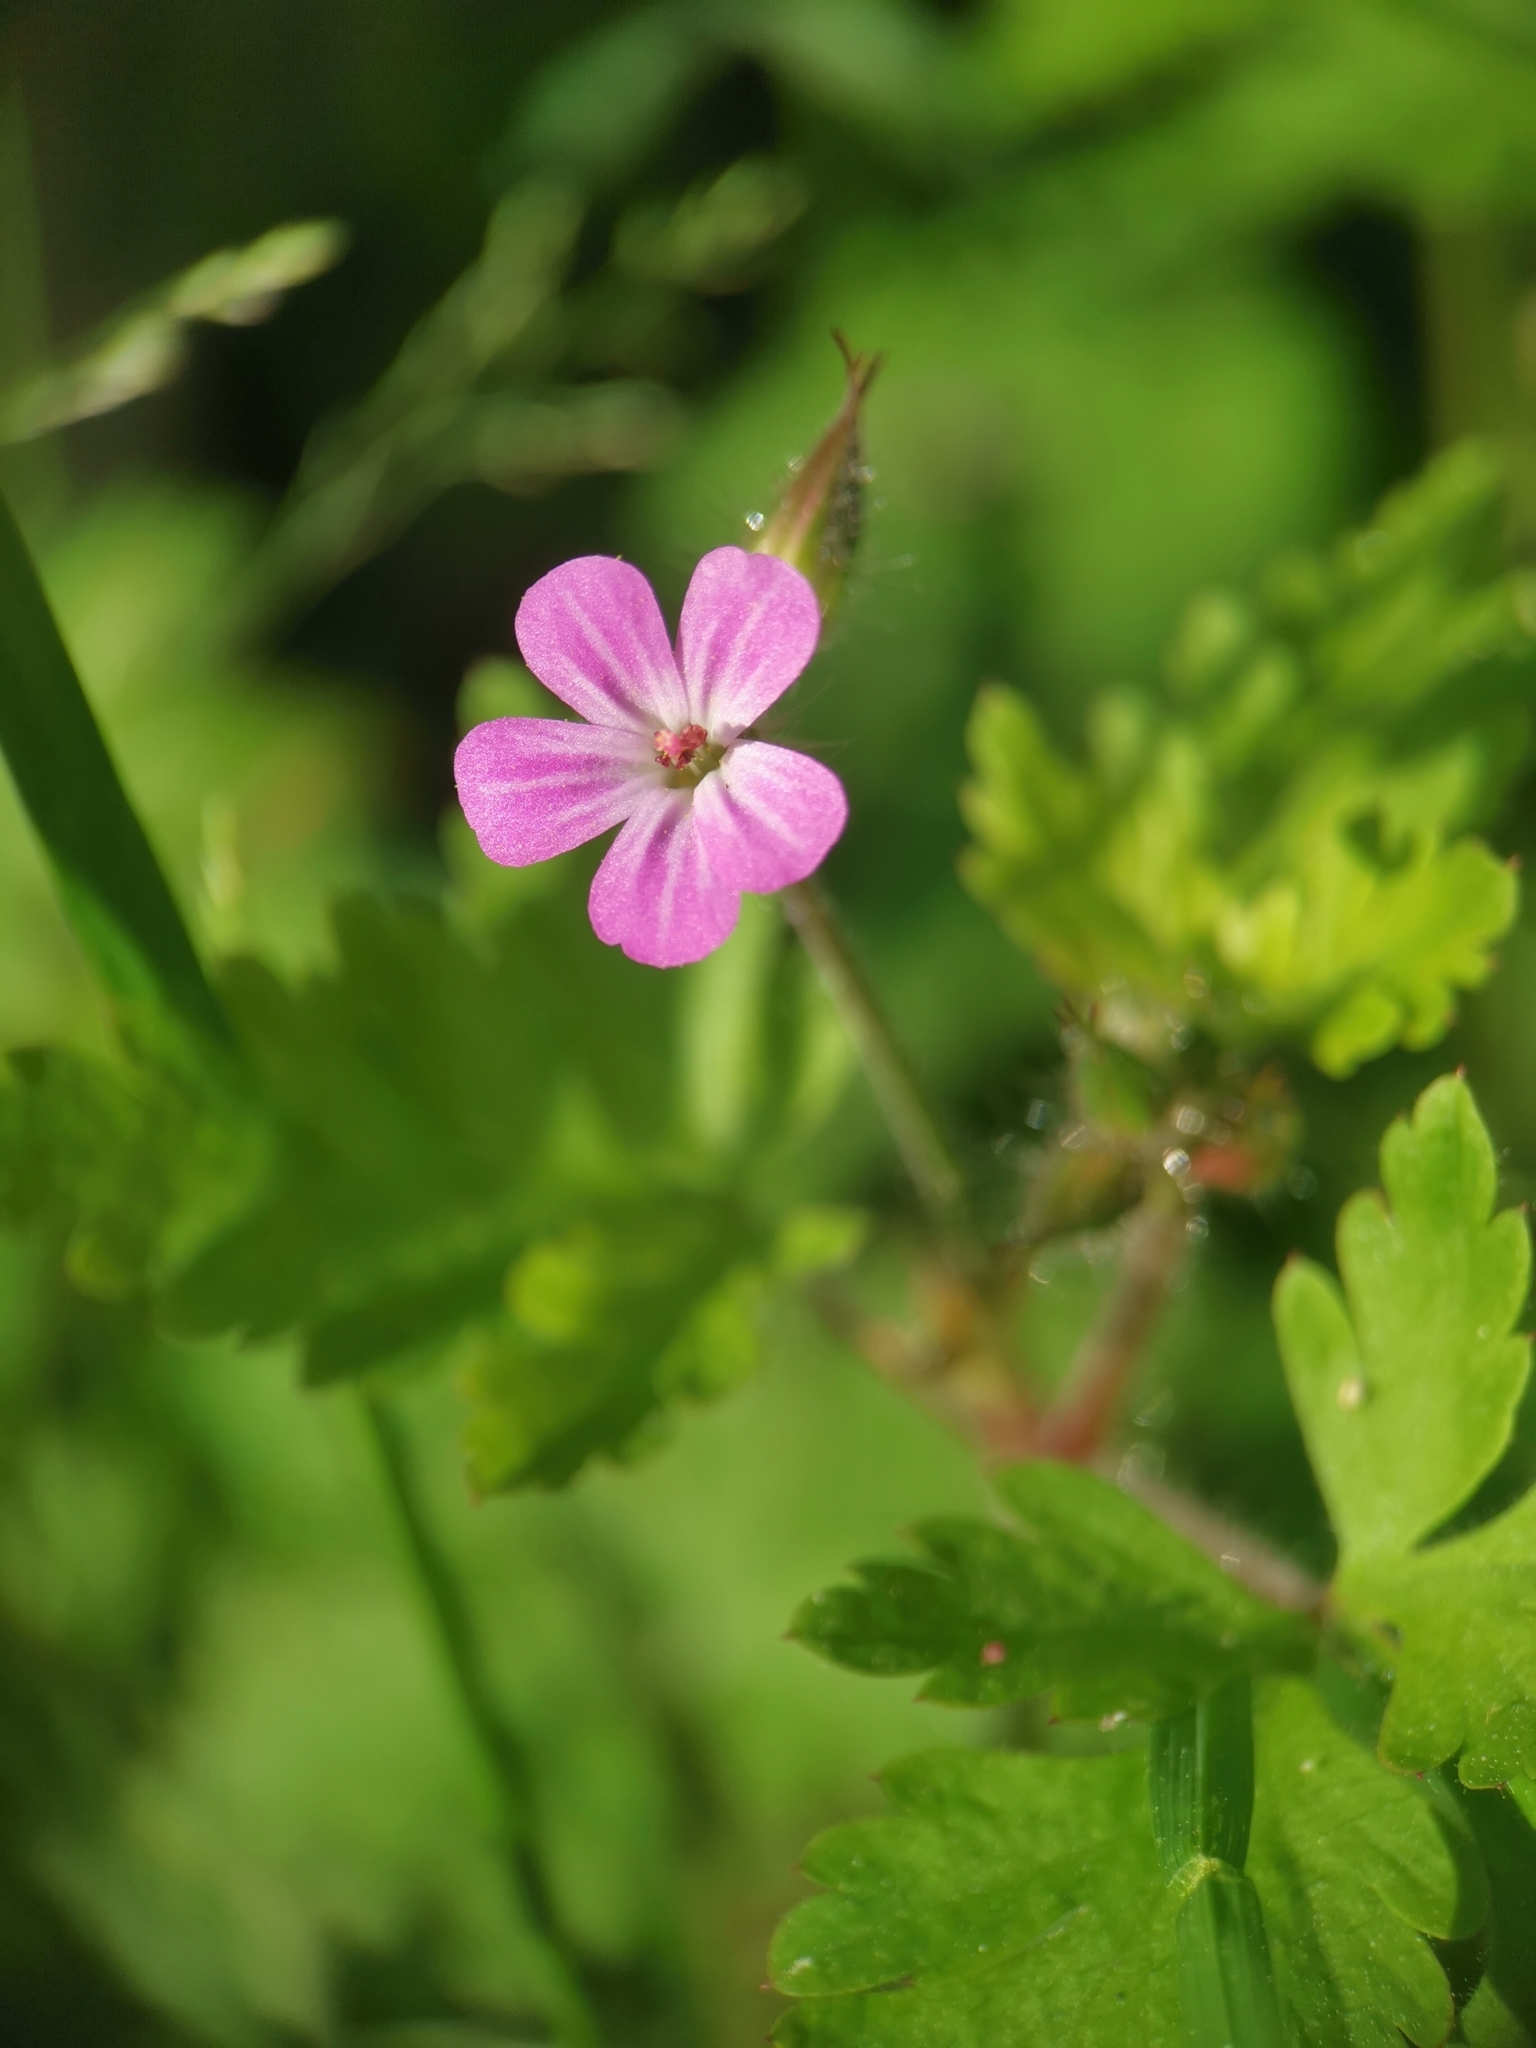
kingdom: Plantae
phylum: Tracheophyta
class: Magnoliopsida
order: Geraniales
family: Geraniaceae
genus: Geranium
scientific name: Geranium robertianum
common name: Herb-robert
